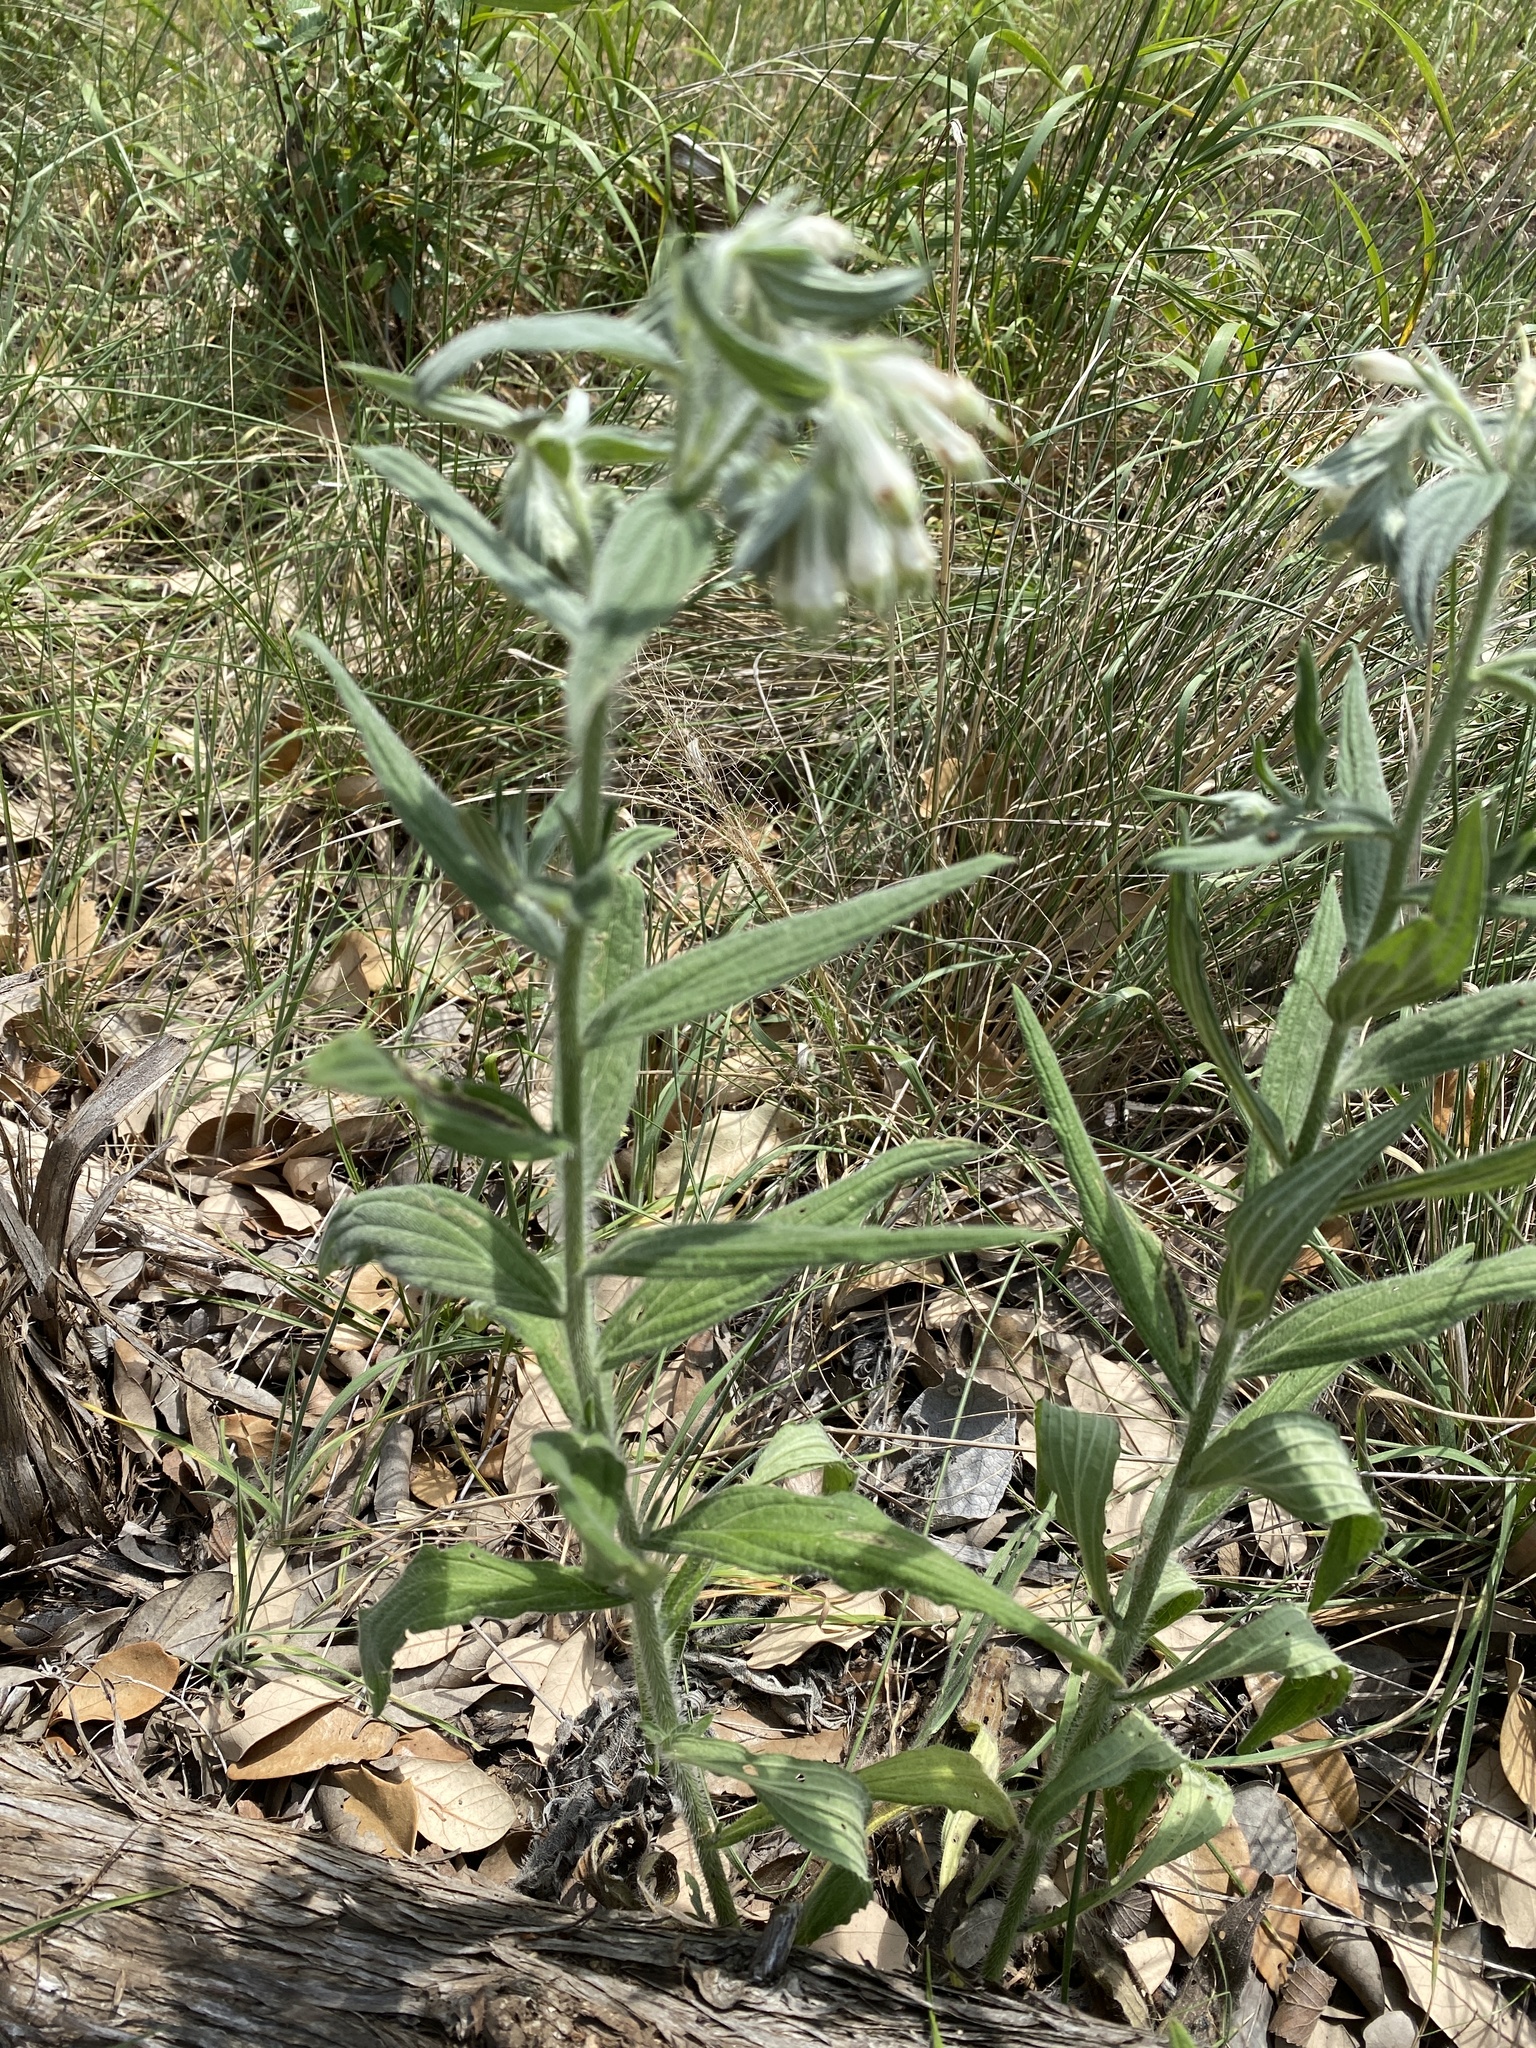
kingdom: Plantae
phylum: Tracheophyta
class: Magnoliopsida
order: Boraginales
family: Boraginaceae
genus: Lithospermum
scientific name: Lithospermum caroliniense
